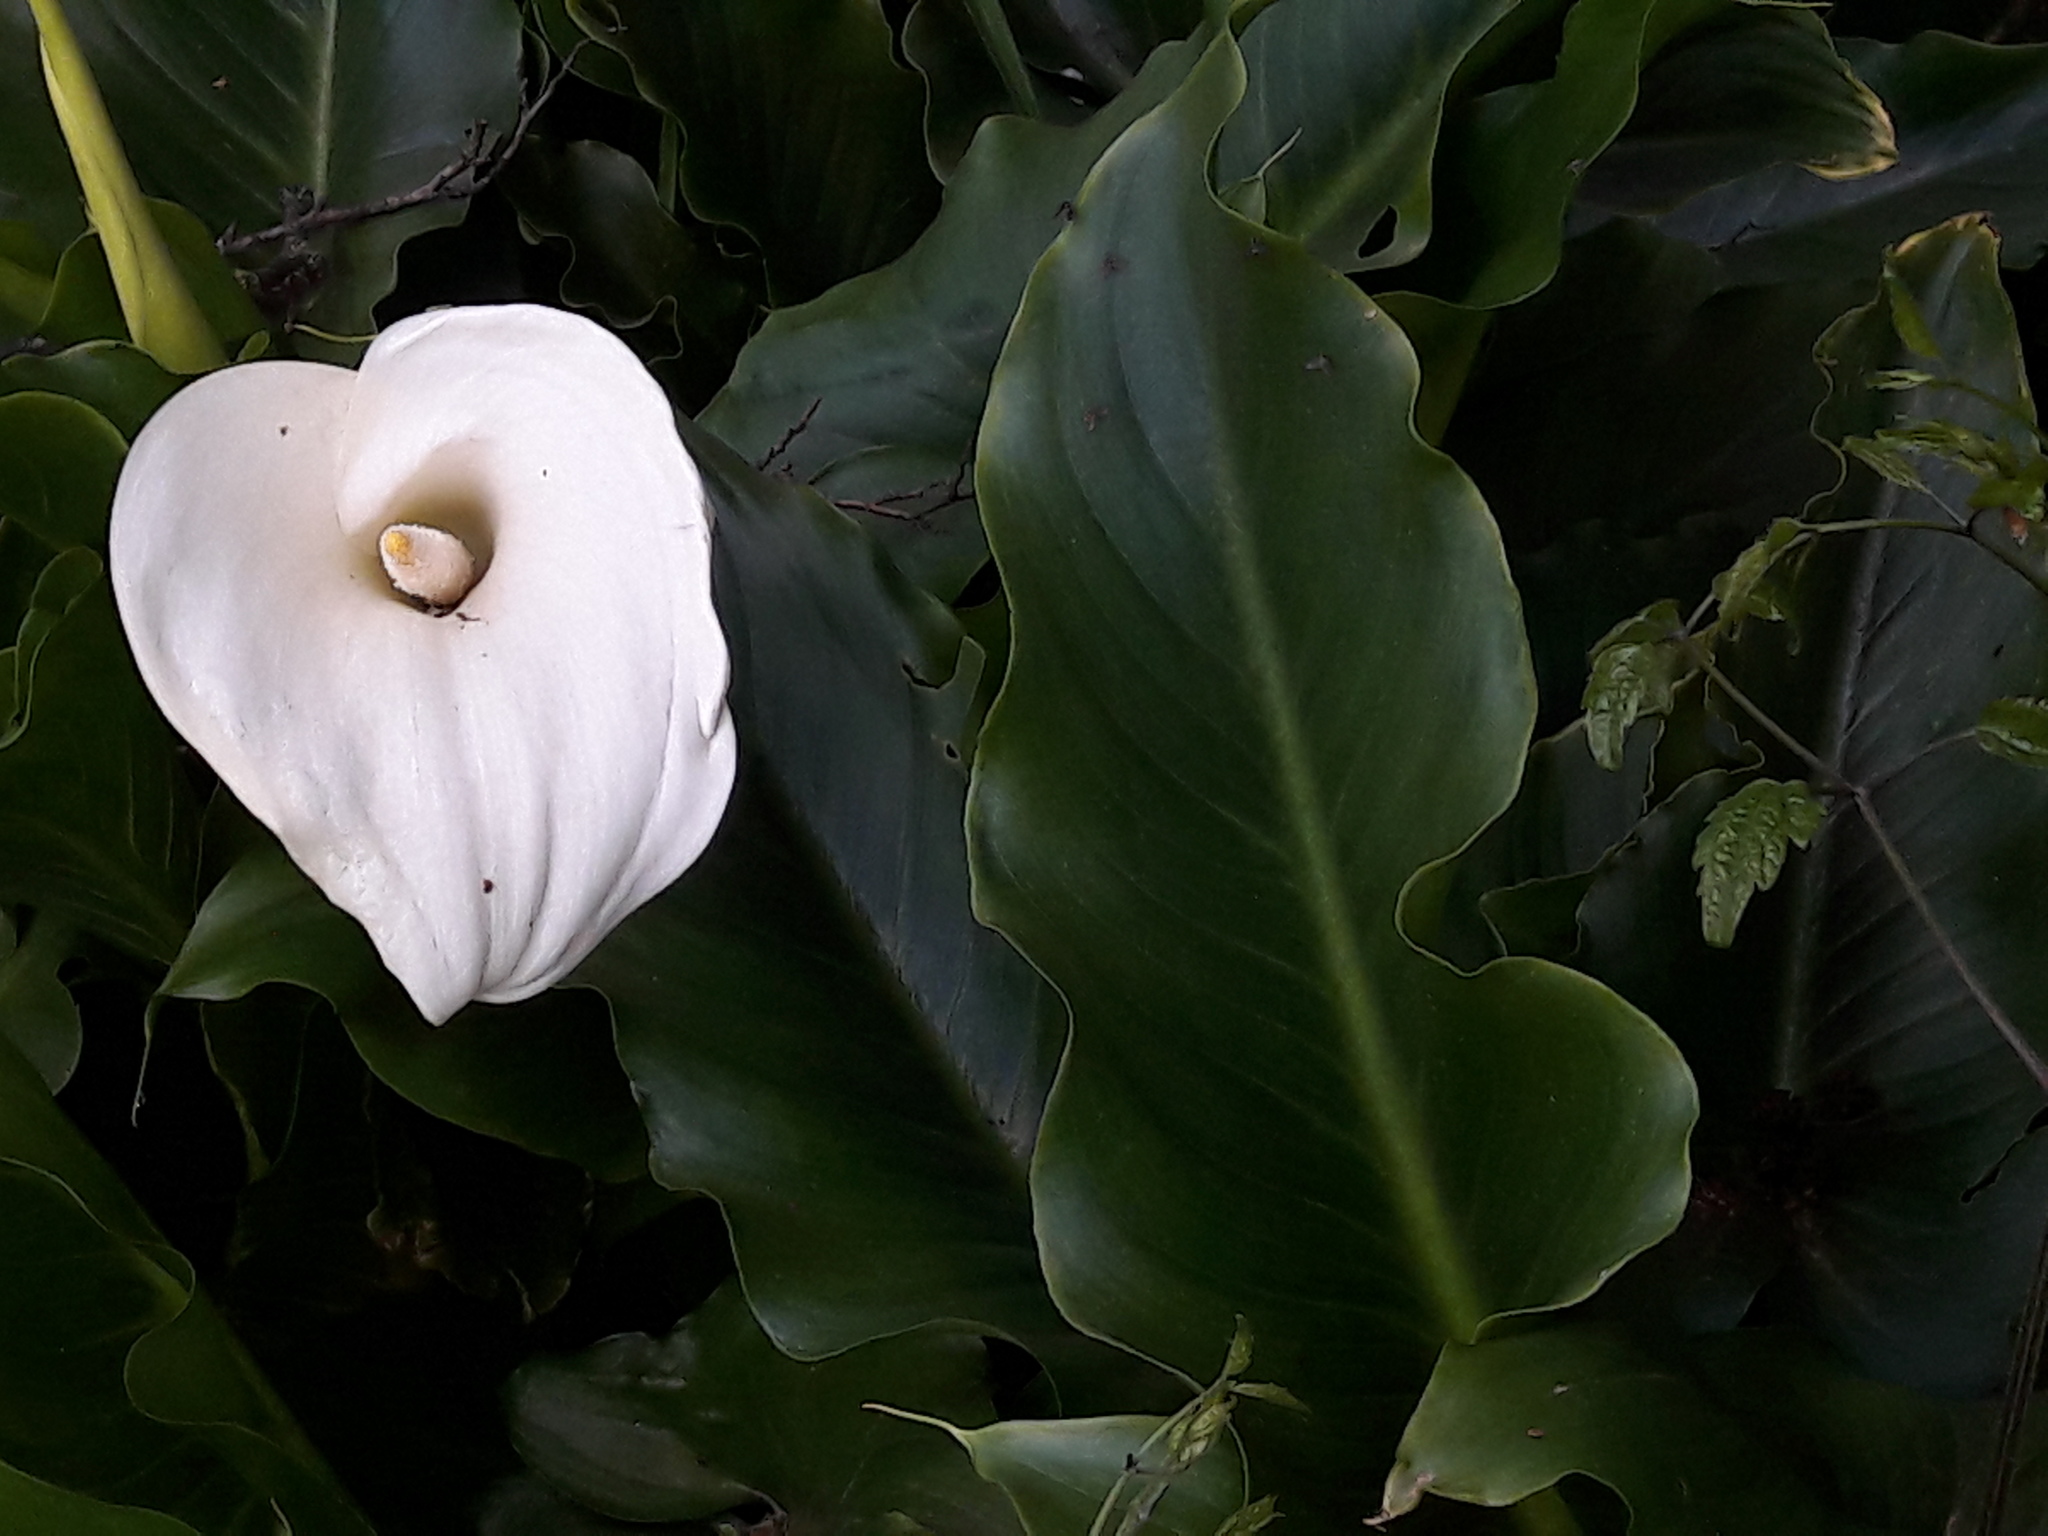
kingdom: Plantae
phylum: Tracheophyta
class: Liliopsida
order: Alismatales
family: Araceae
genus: Zantedeschia
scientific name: Zantedeschia aethiopica
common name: Altar-lily
